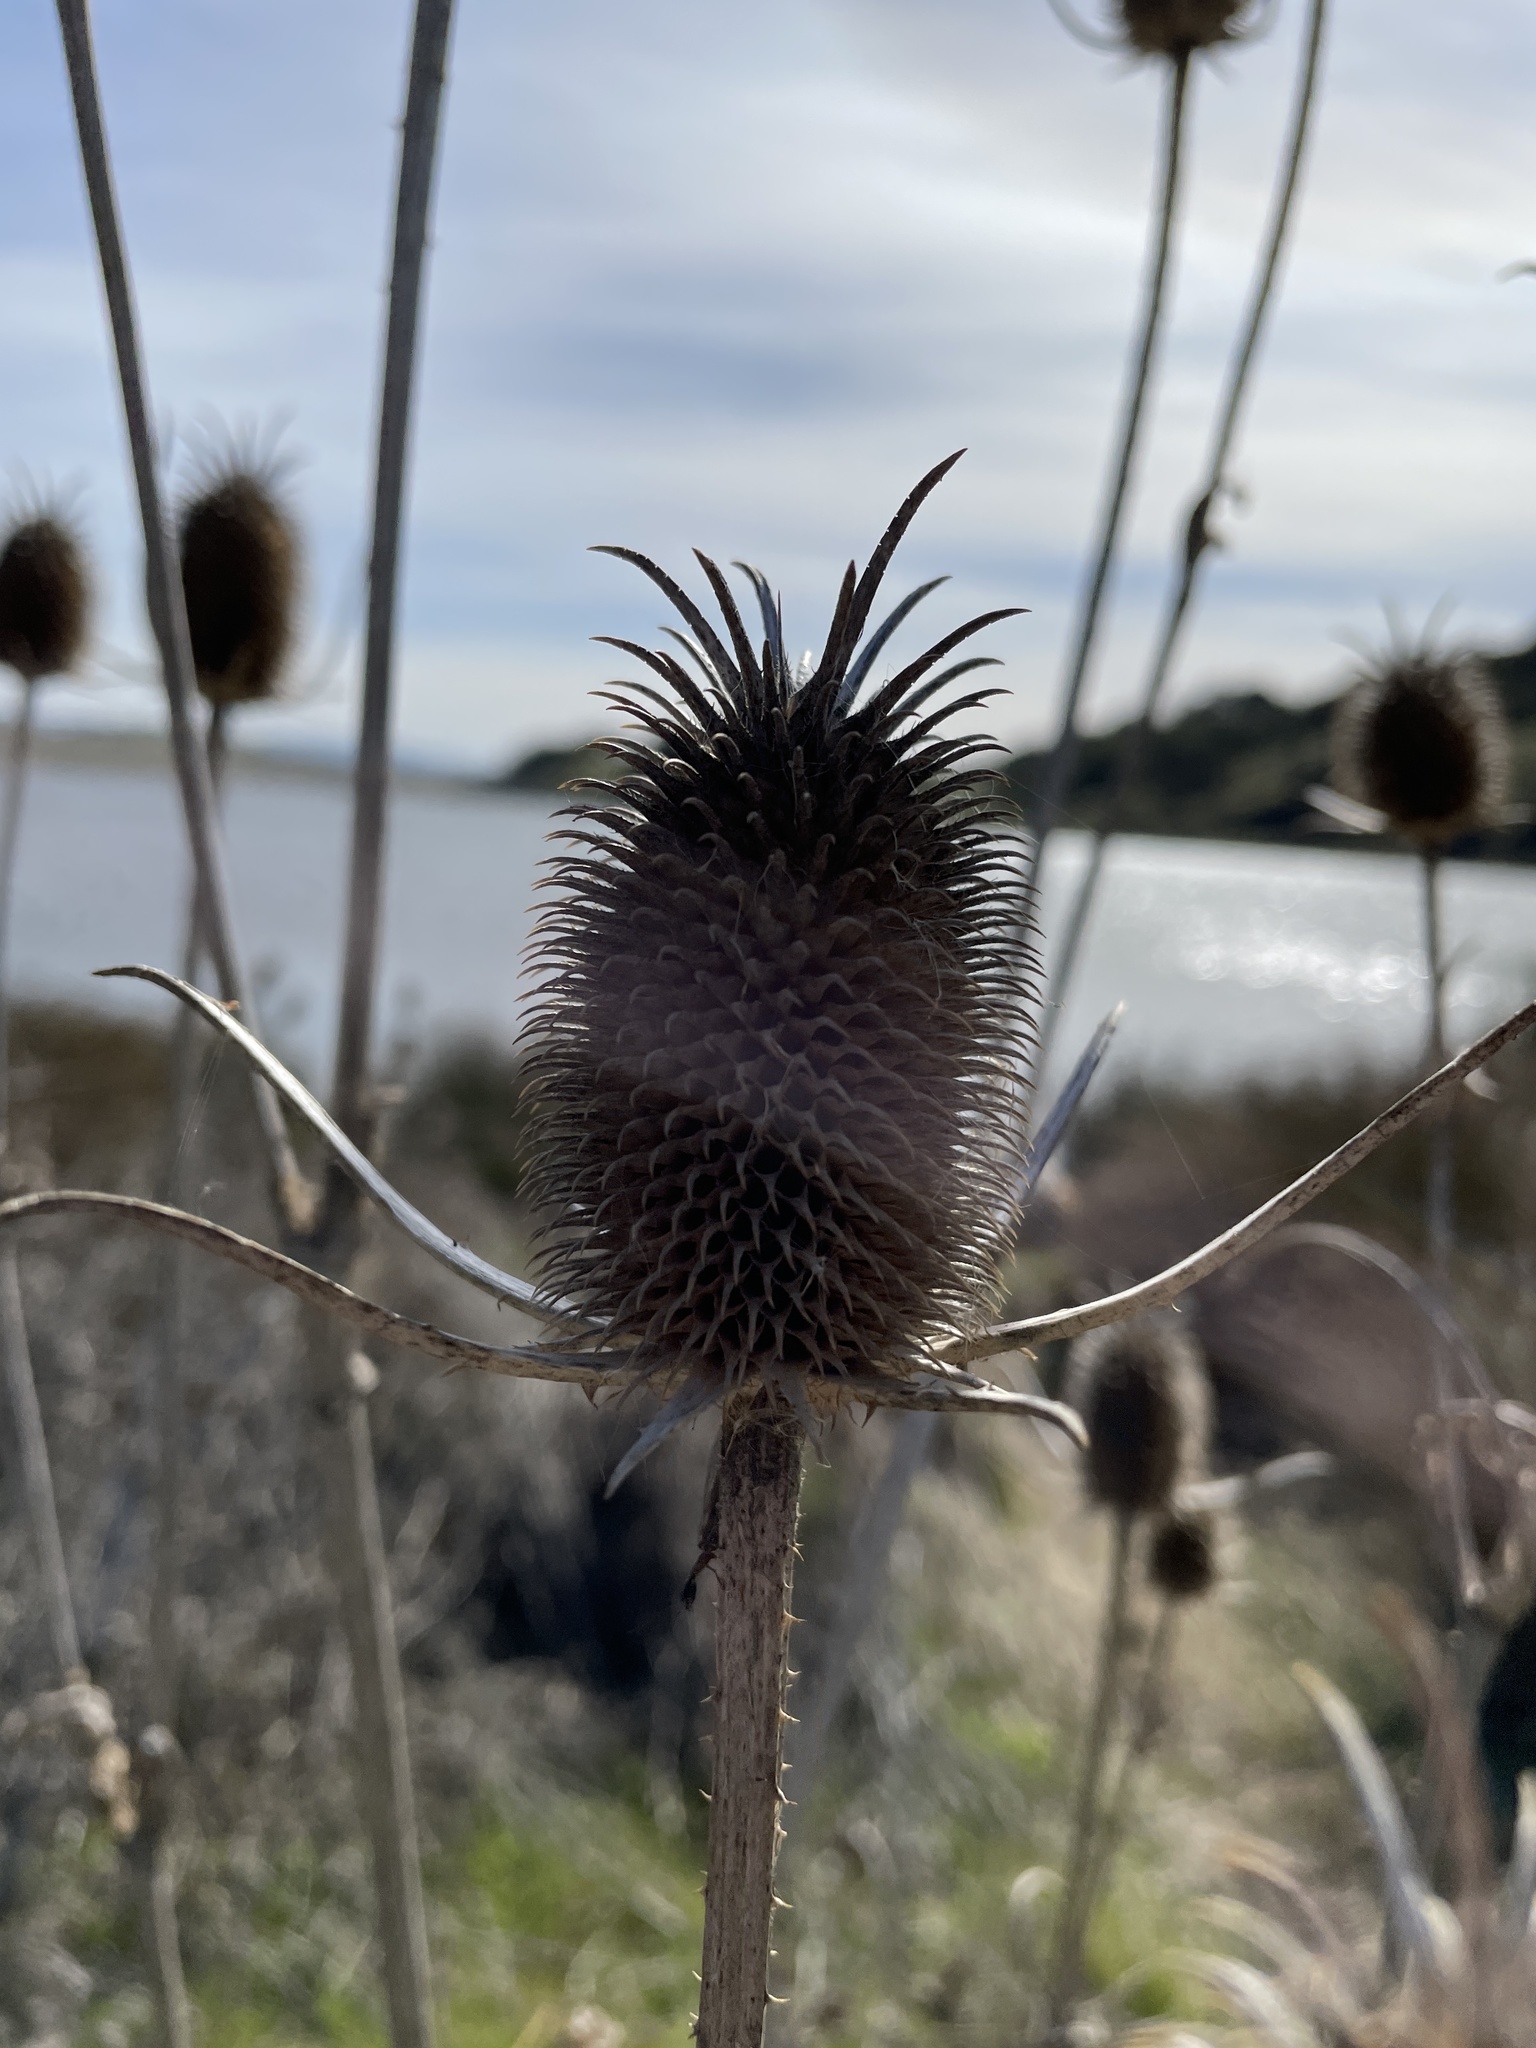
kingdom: Plantae
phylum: Tracheophyta
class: Magnoliopsida
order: Dipsacales
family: Caprifoliaceae
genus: Dipsacus
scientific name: Dipsacus sativus
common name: Fuller's teasel
